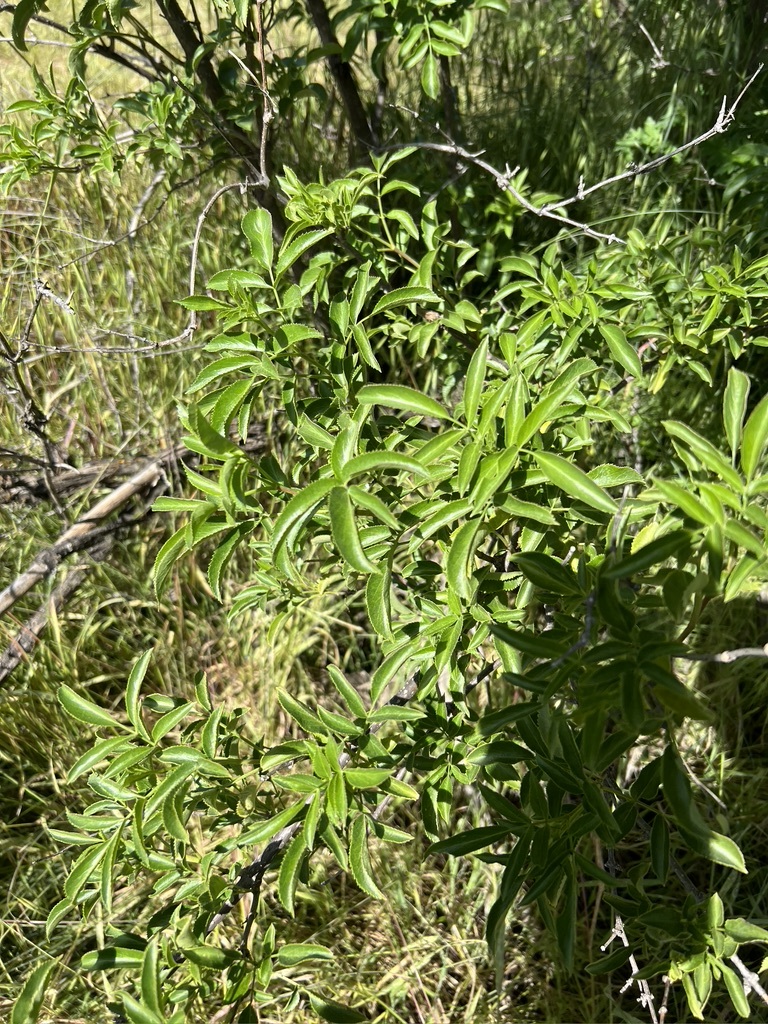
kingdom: Plantae
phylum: Tracheophyta
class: Magnoliopsida
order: Dipsacales
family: Viburnaceae
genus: Sambucus
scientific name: Sambucus cerulea
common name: Blue elder
